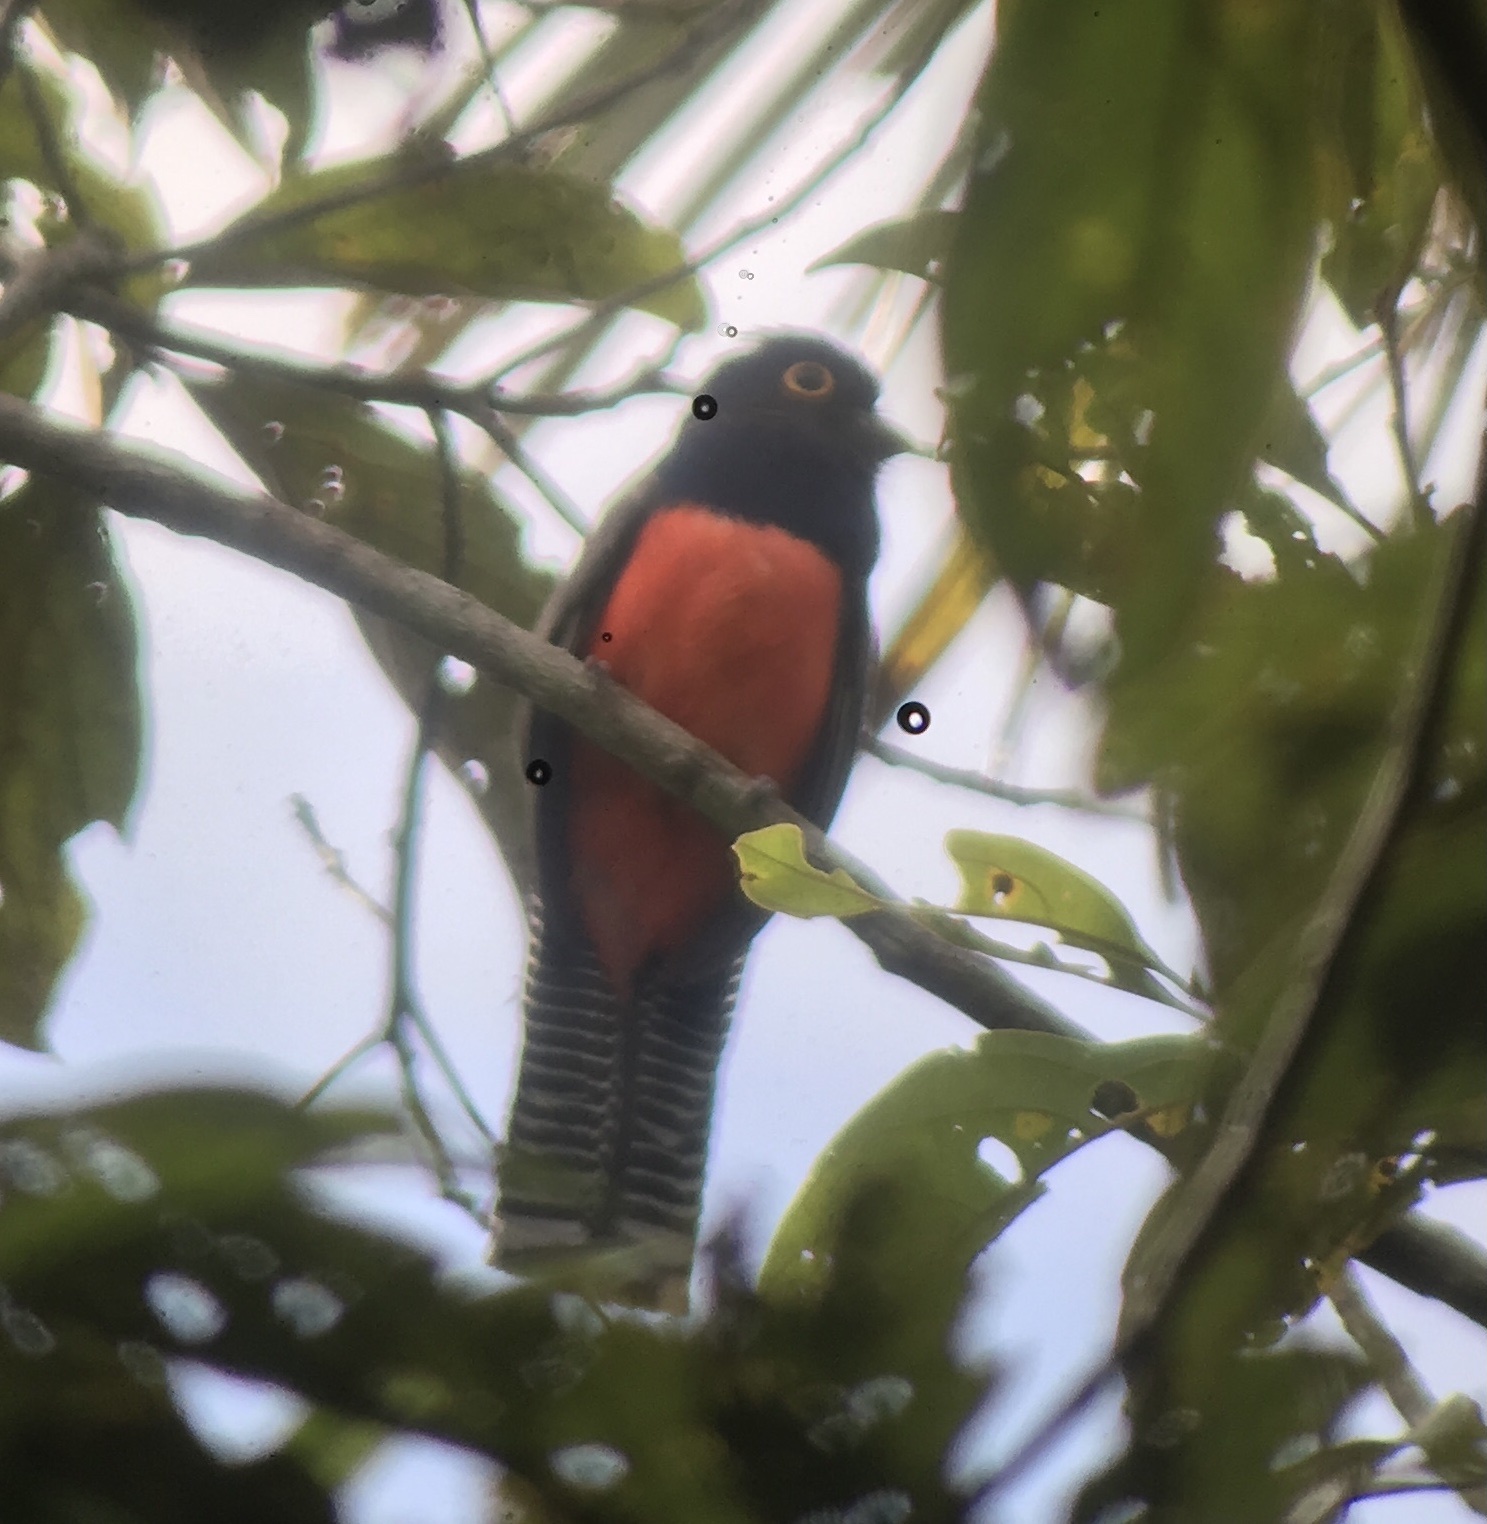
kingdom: Animalia
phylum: Chordata
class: Aves
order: Trogoniformes
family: Trogonidae
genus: Trogon
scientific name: Trogon curucui
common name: Blue-crowned trogon
